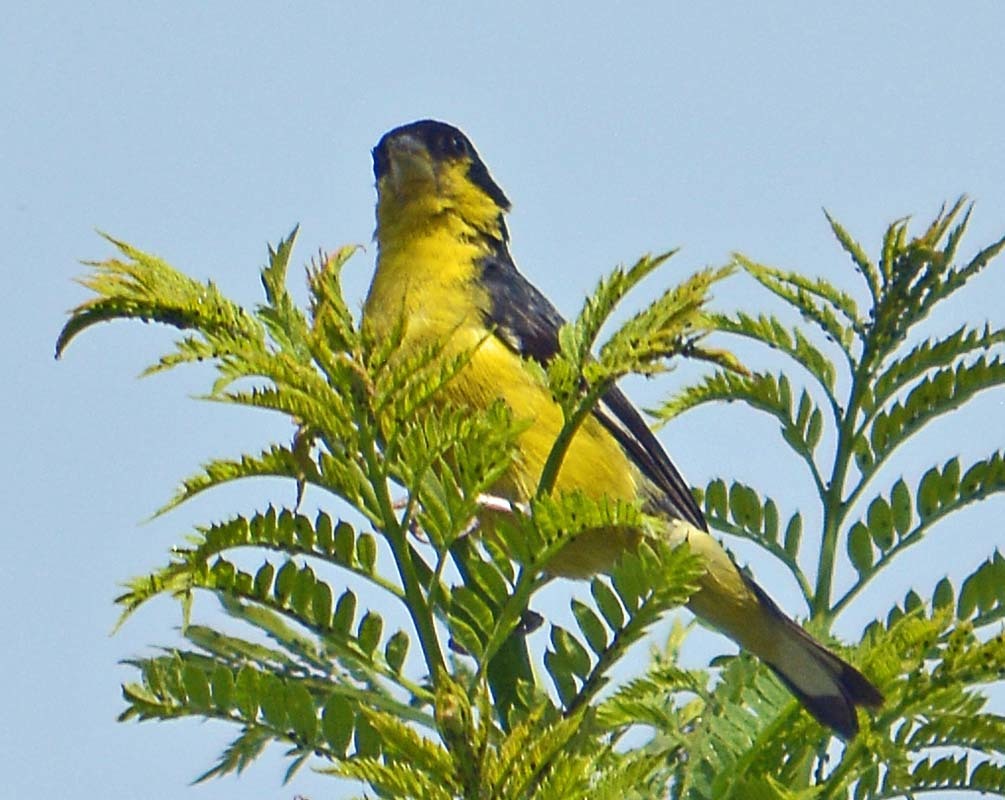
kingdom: Animalia
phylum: Chordata
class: Aves
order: Passeriformes
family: Fringillidae
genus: Spinus
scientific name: Spinus psaltria
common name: Lesser goldfinch
